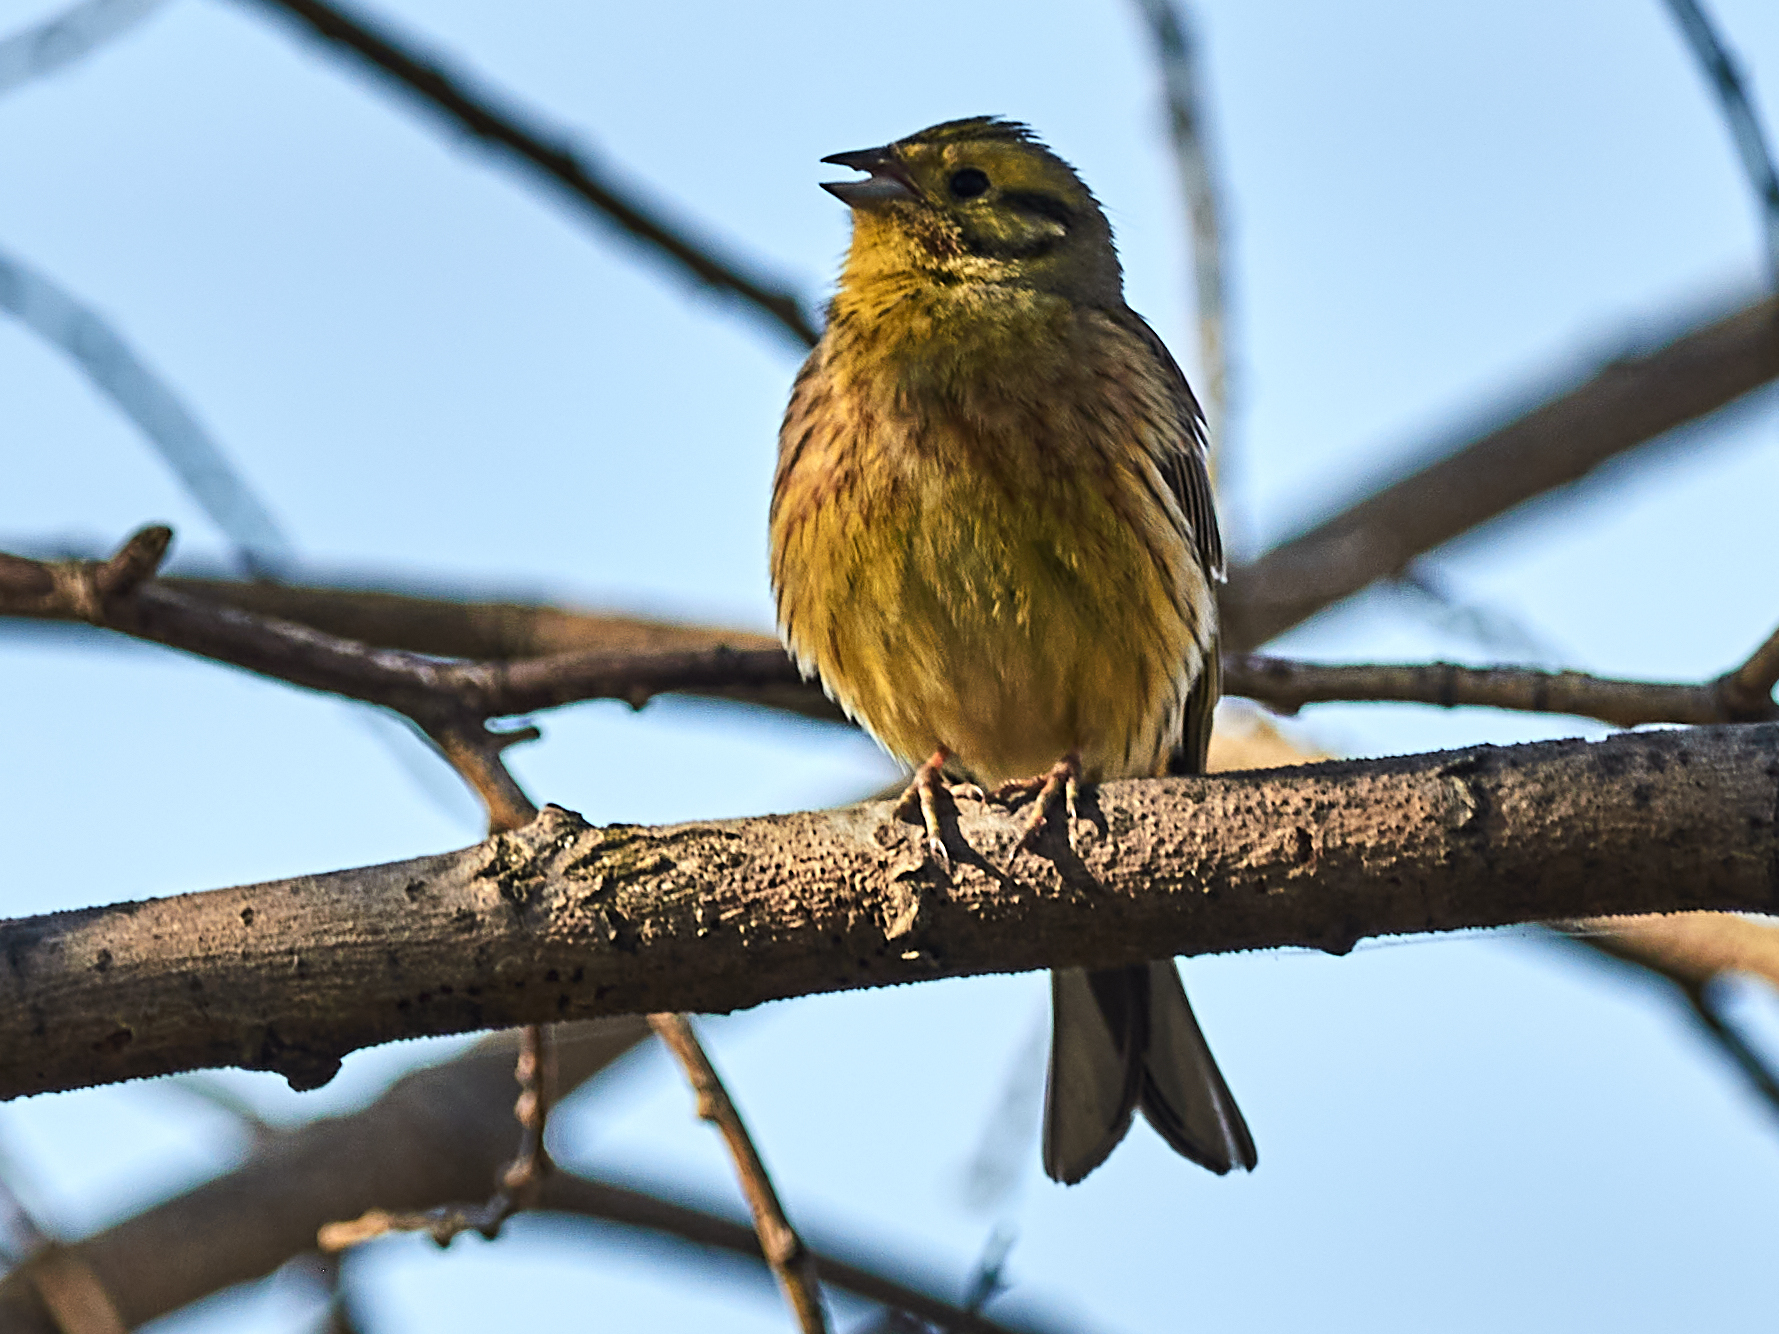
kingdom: Animalia
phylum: Chordata
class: Aves
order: Passeriformes
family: Emberizidae
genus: Emberiza
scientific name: Emberiza citrinella
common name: Yellowhammer
